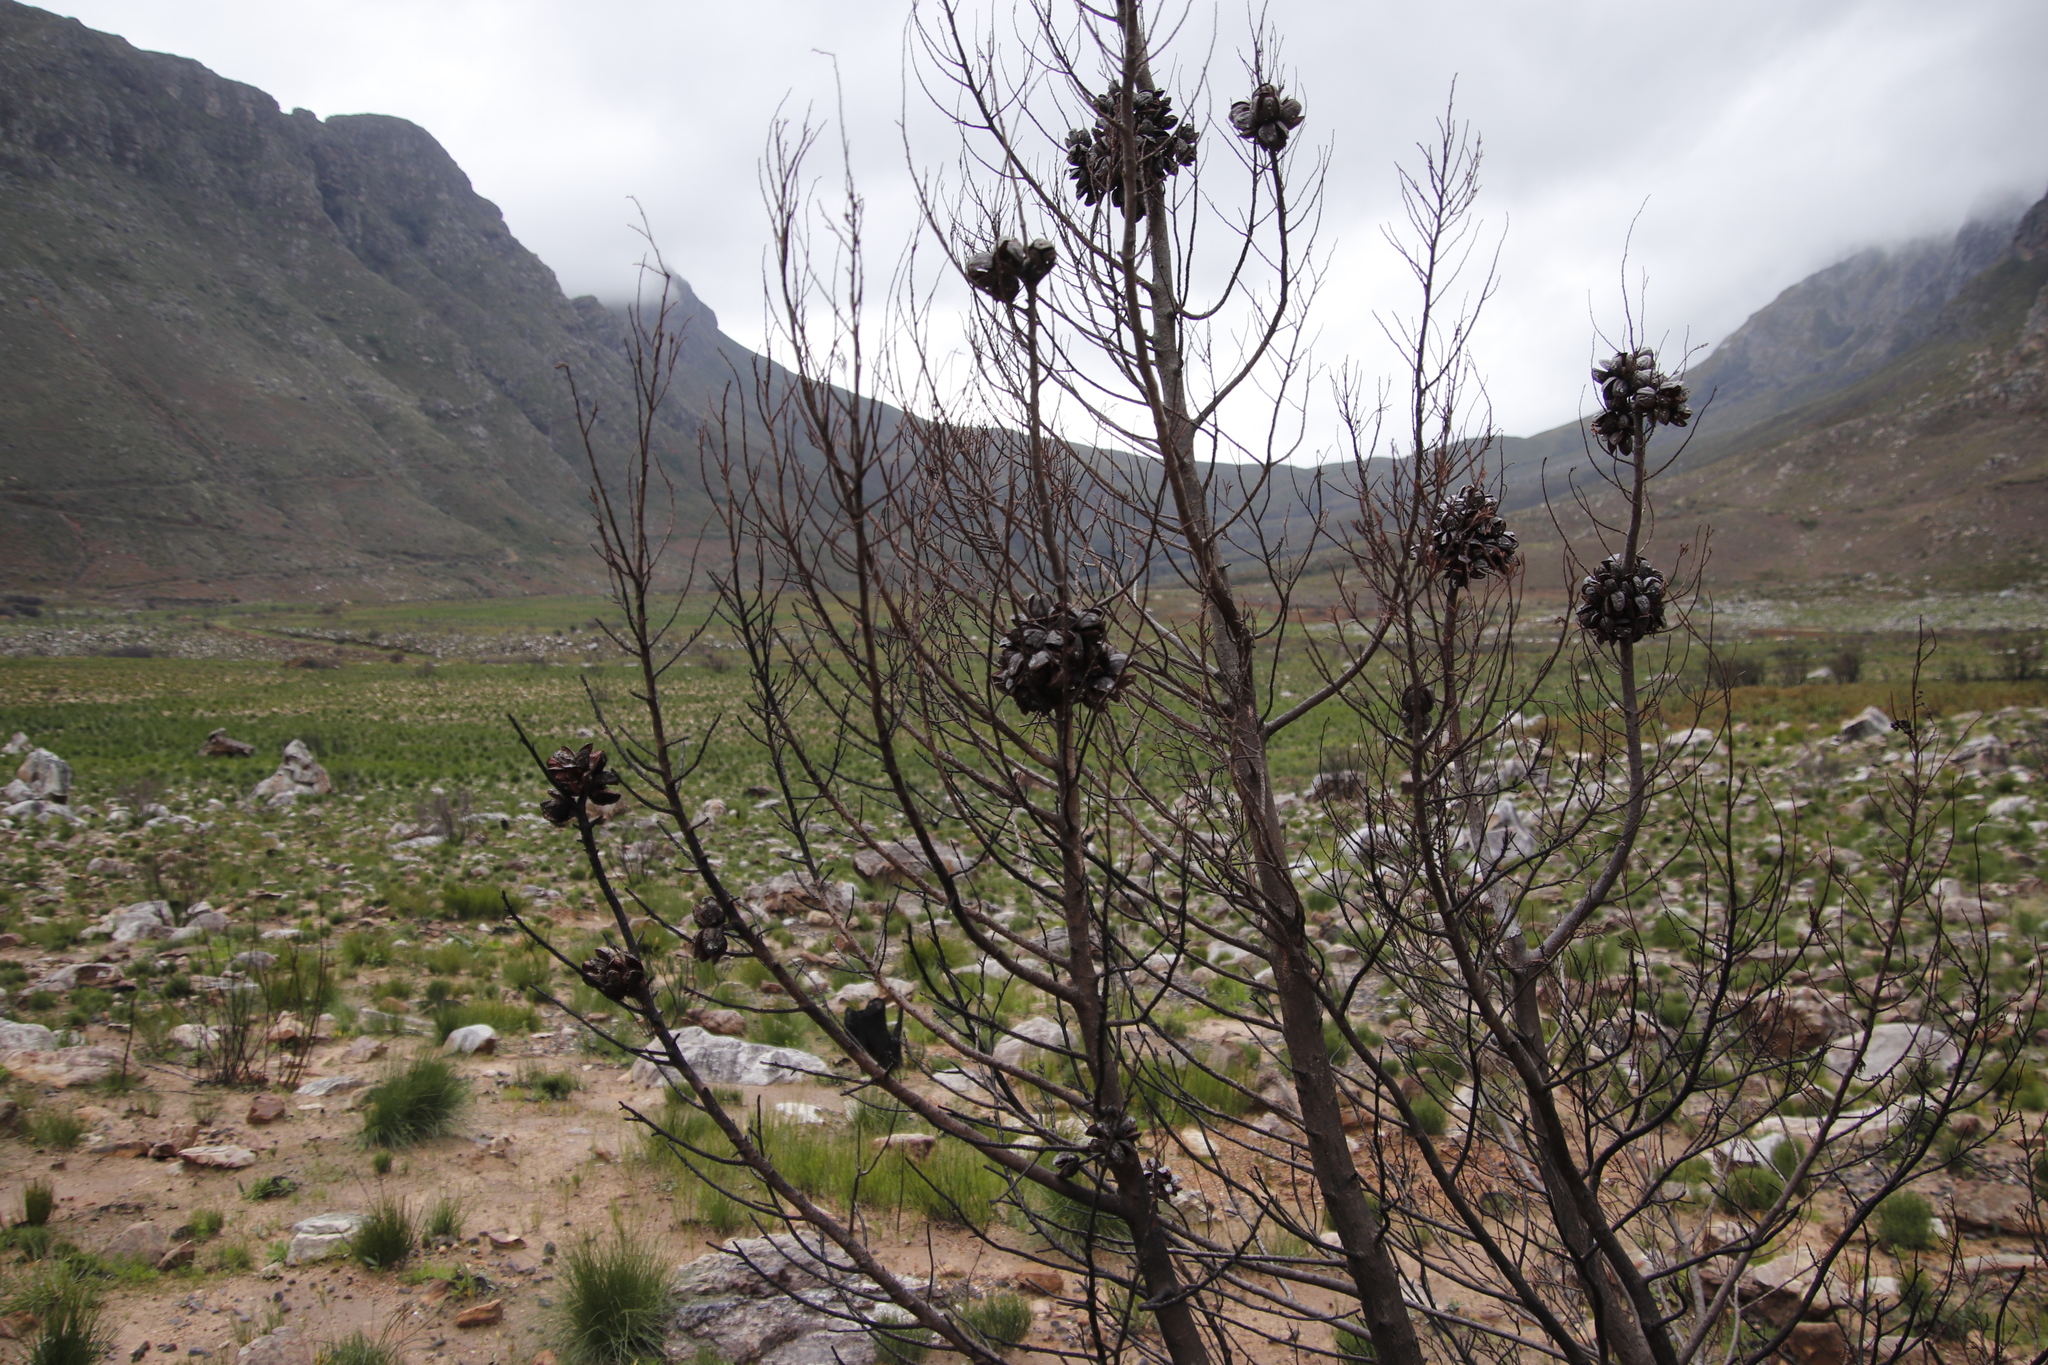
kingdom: Plantae
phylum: Tracheophyta
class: Pinopsida
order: Pinales
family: Cupressaceae
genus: Widdringtonia
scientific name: Widdringtonia nodiflora
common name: Cape cypress
